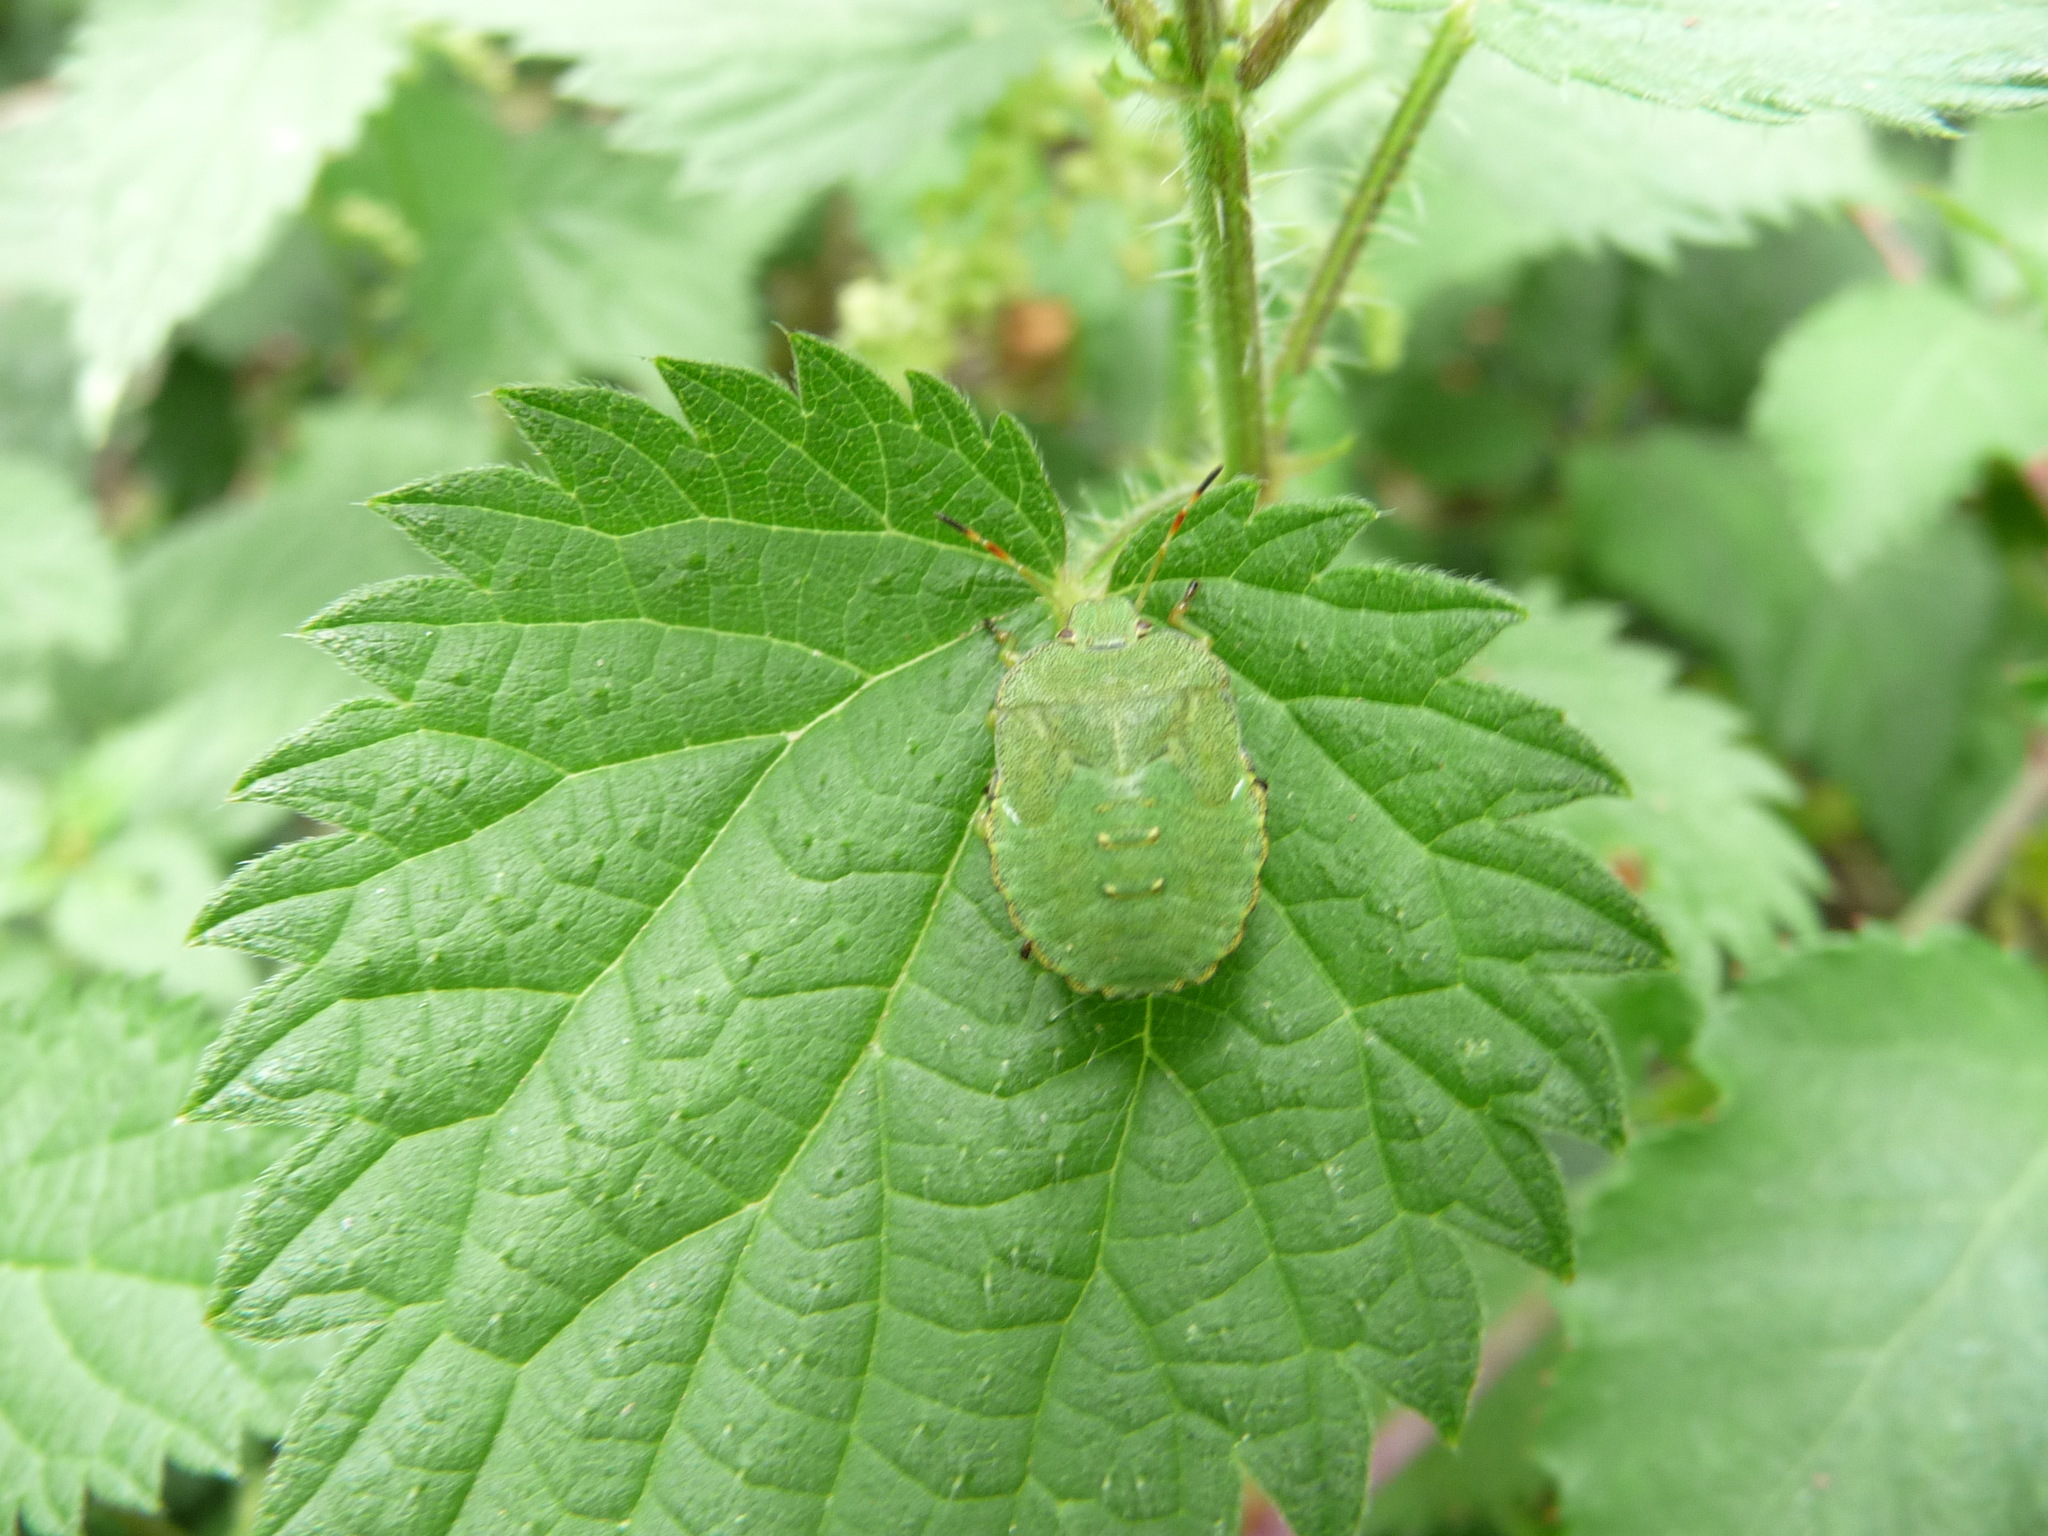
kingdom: Animalia
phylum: Arthropoda
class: Insecta
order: Hemiptera
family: Pentatomidae
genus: Palomena
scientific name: Palomena prasina
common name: Green shieldbug
